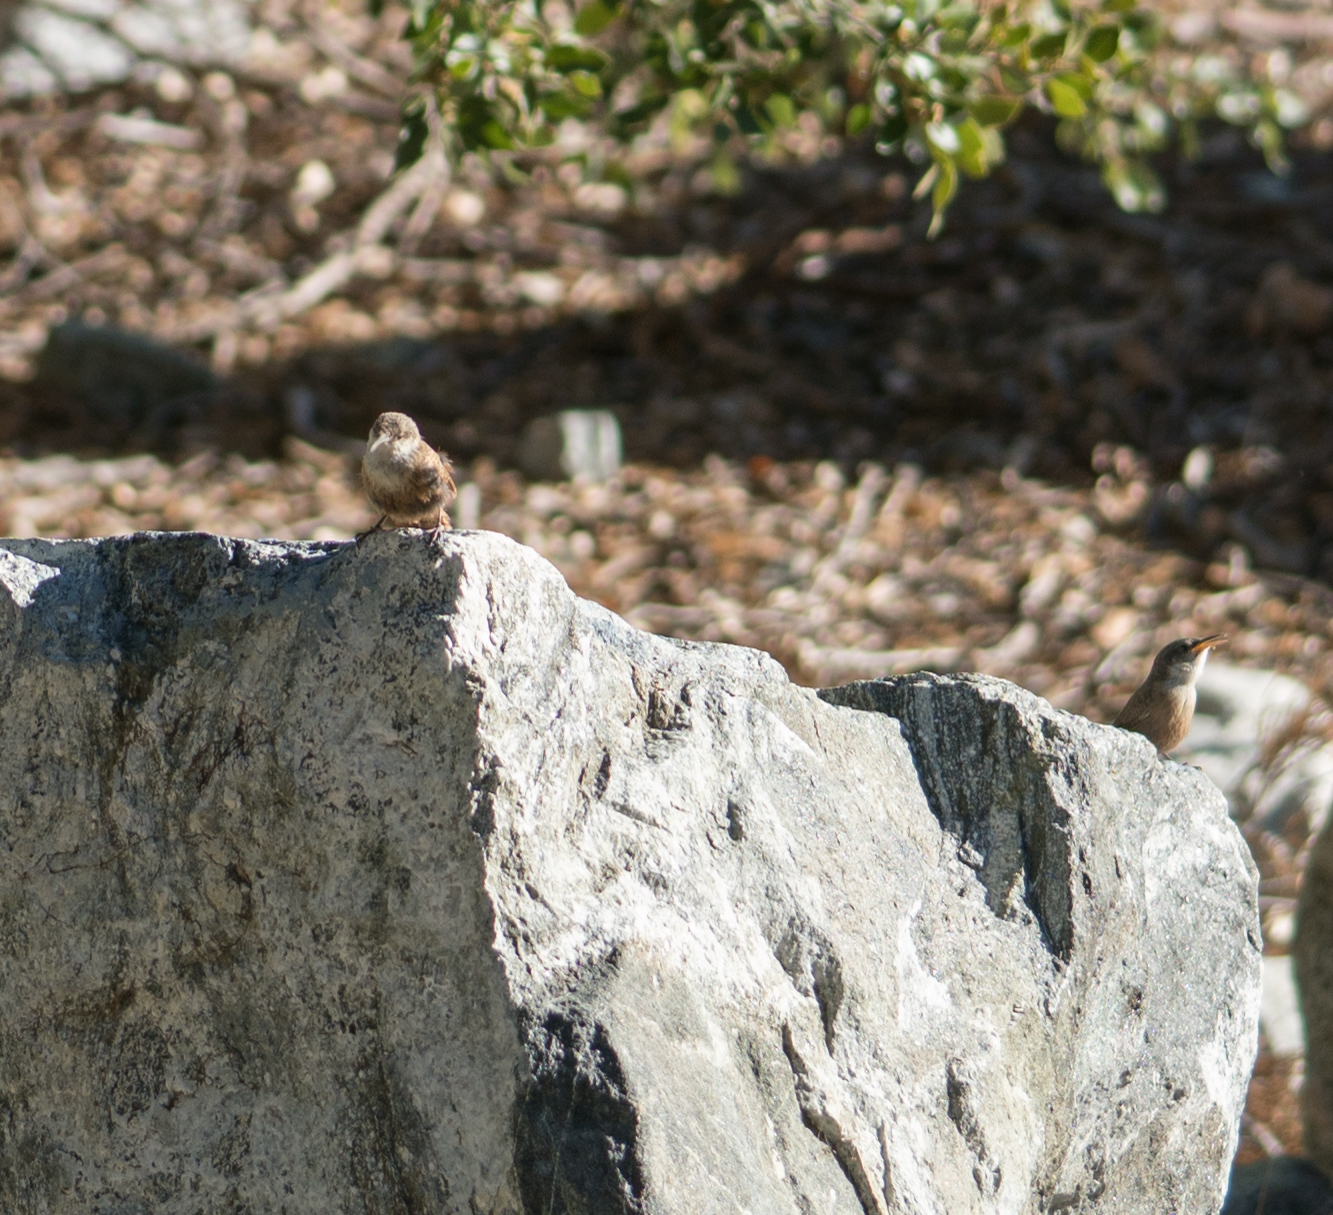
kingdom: Animalia
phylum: Chordata
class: Aves
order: Passeriformes
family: Troglodytidae
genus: Catherpes
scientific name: Catherpes mexicanus
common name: Canyon wren
